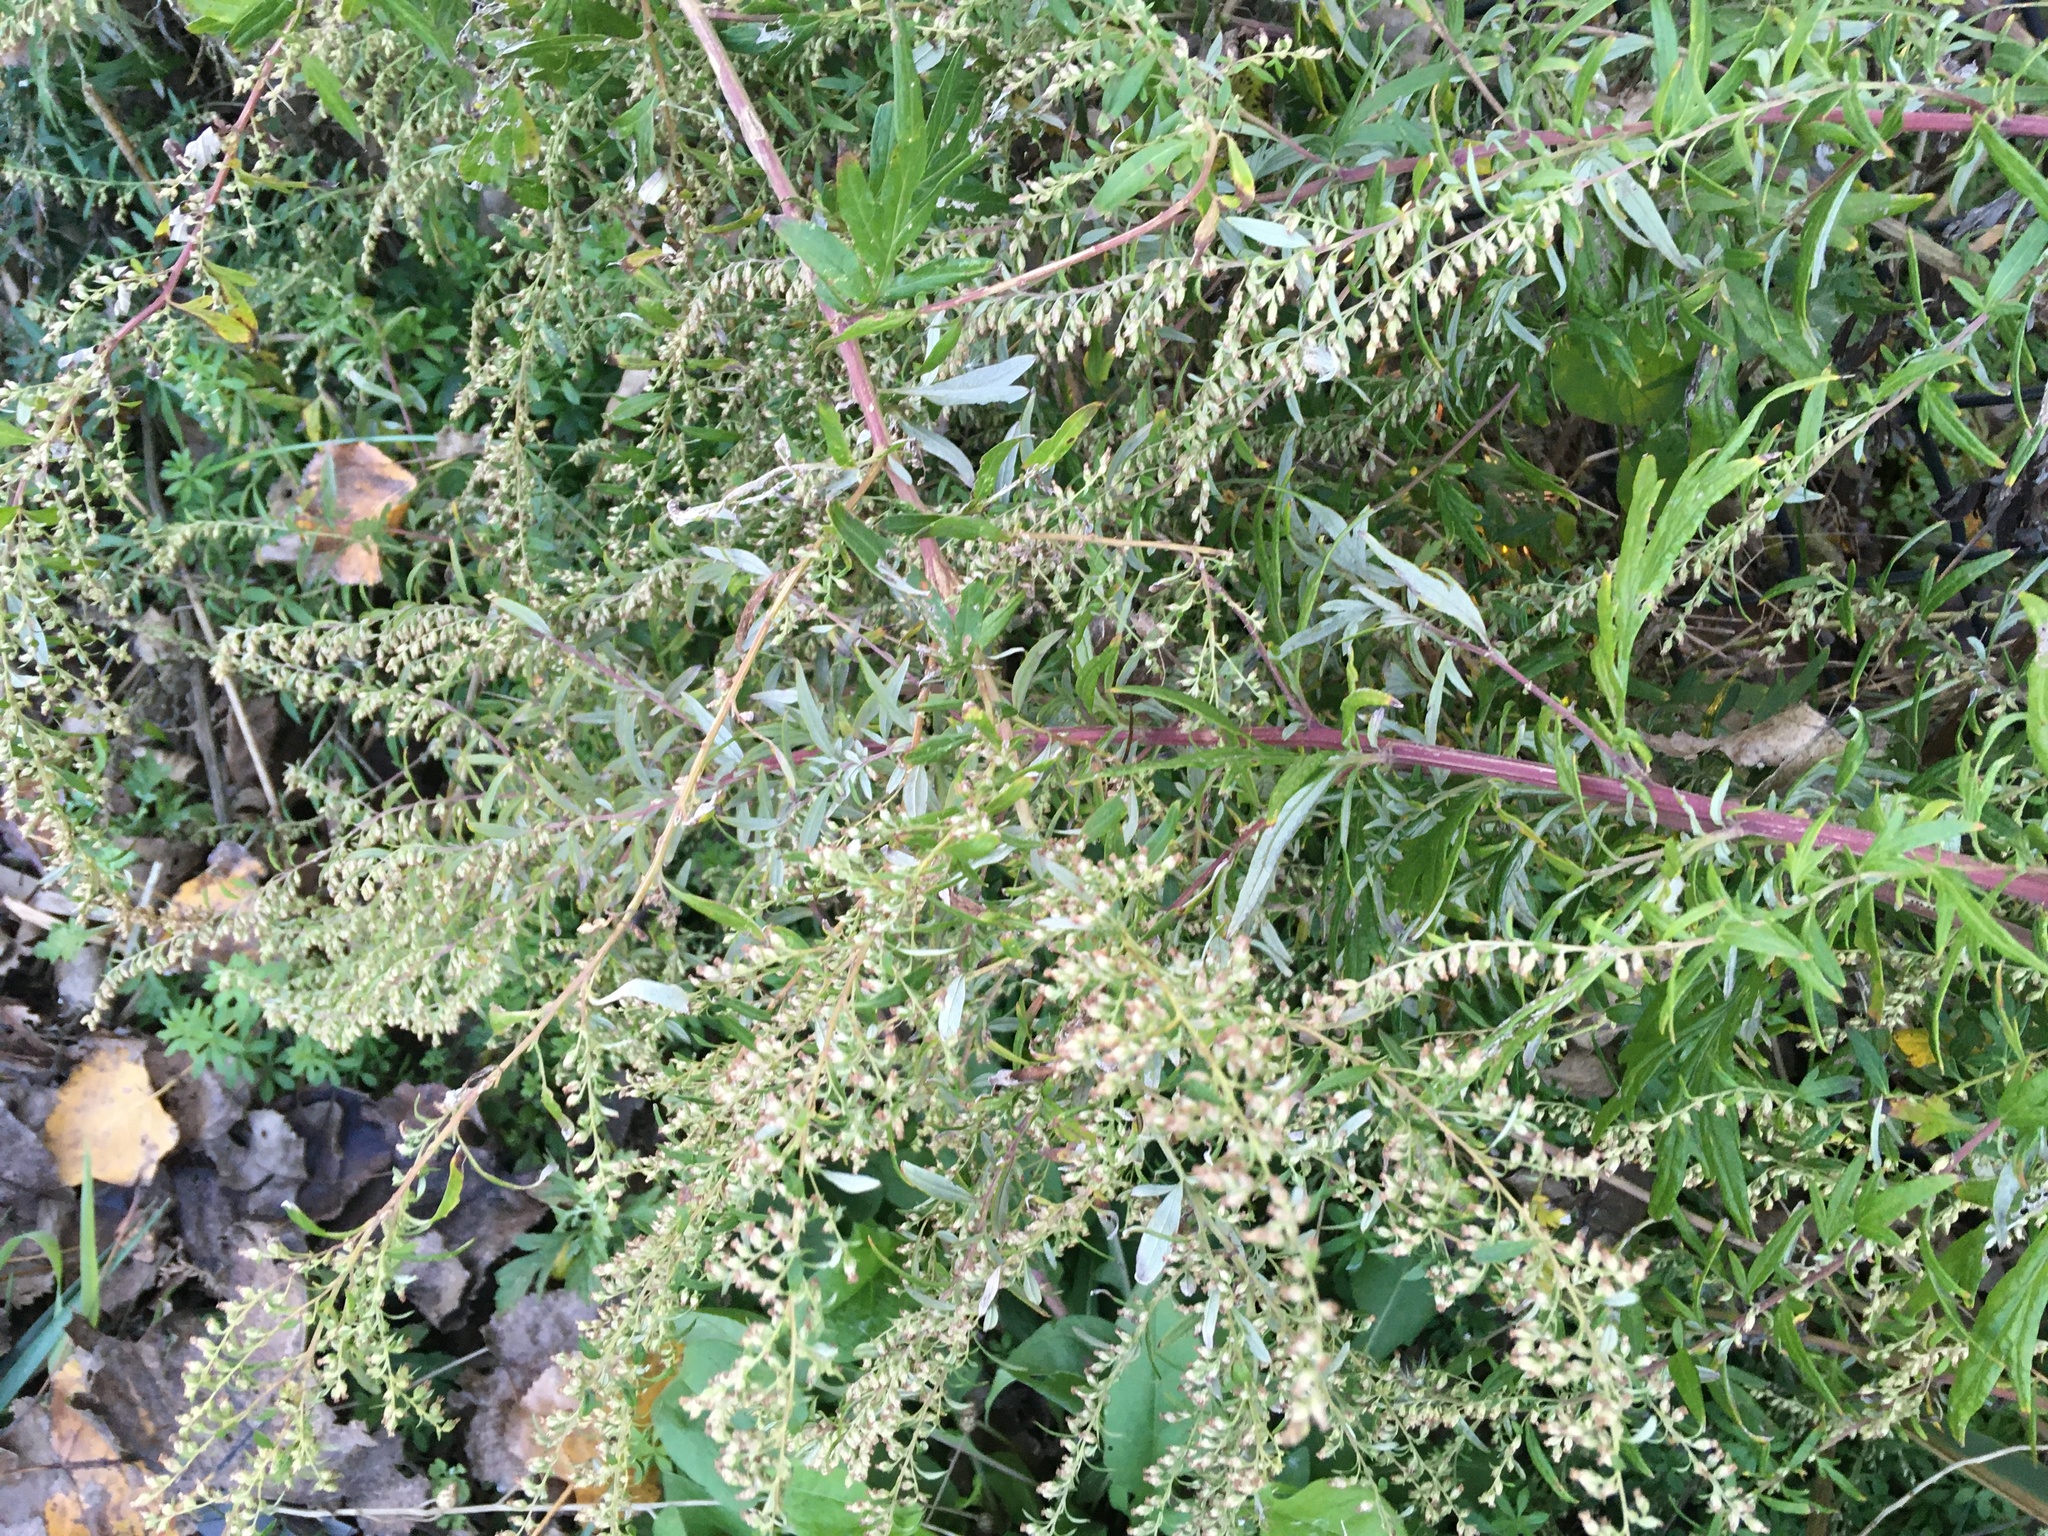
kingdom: Plantae
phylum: Tracheophyta
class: Magnoliopsida
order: Asterales
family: Asteraceae
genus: Artemisia
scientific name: Artemisia vulgaris
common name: Mugwort
